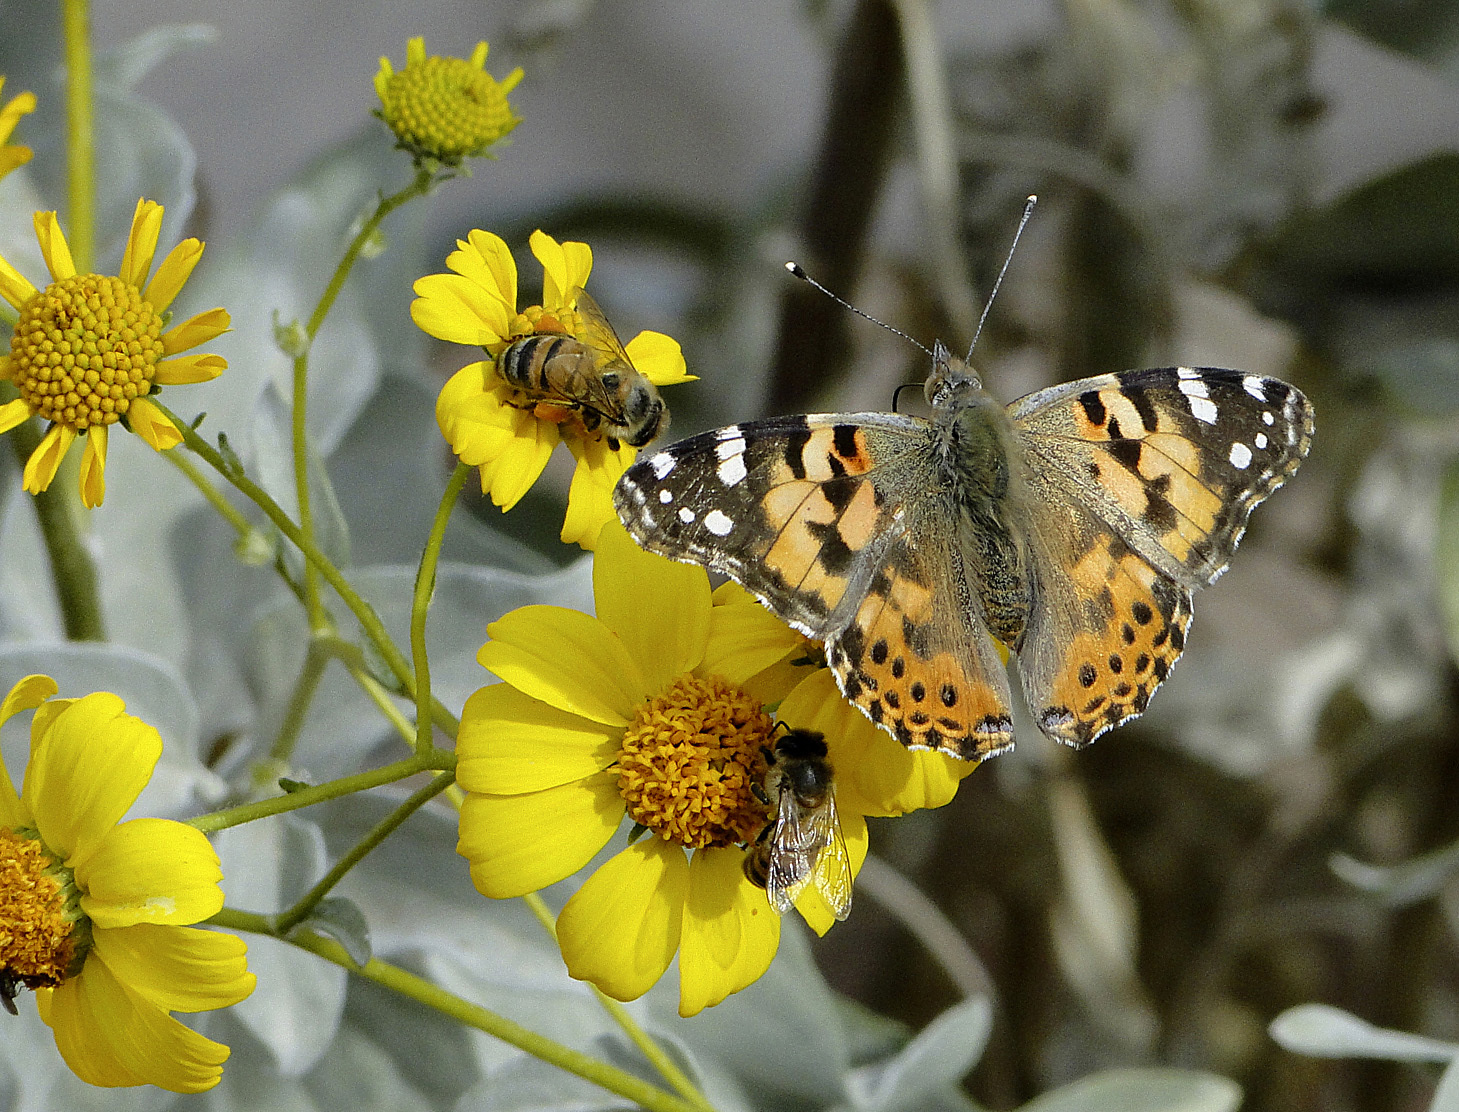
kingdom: Animalia
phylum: Arthropoda
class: Insecta
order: Lepidoptera
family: Nymphalidae
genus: Vanessa
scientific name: Vanessa cardui
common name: Painted lady
